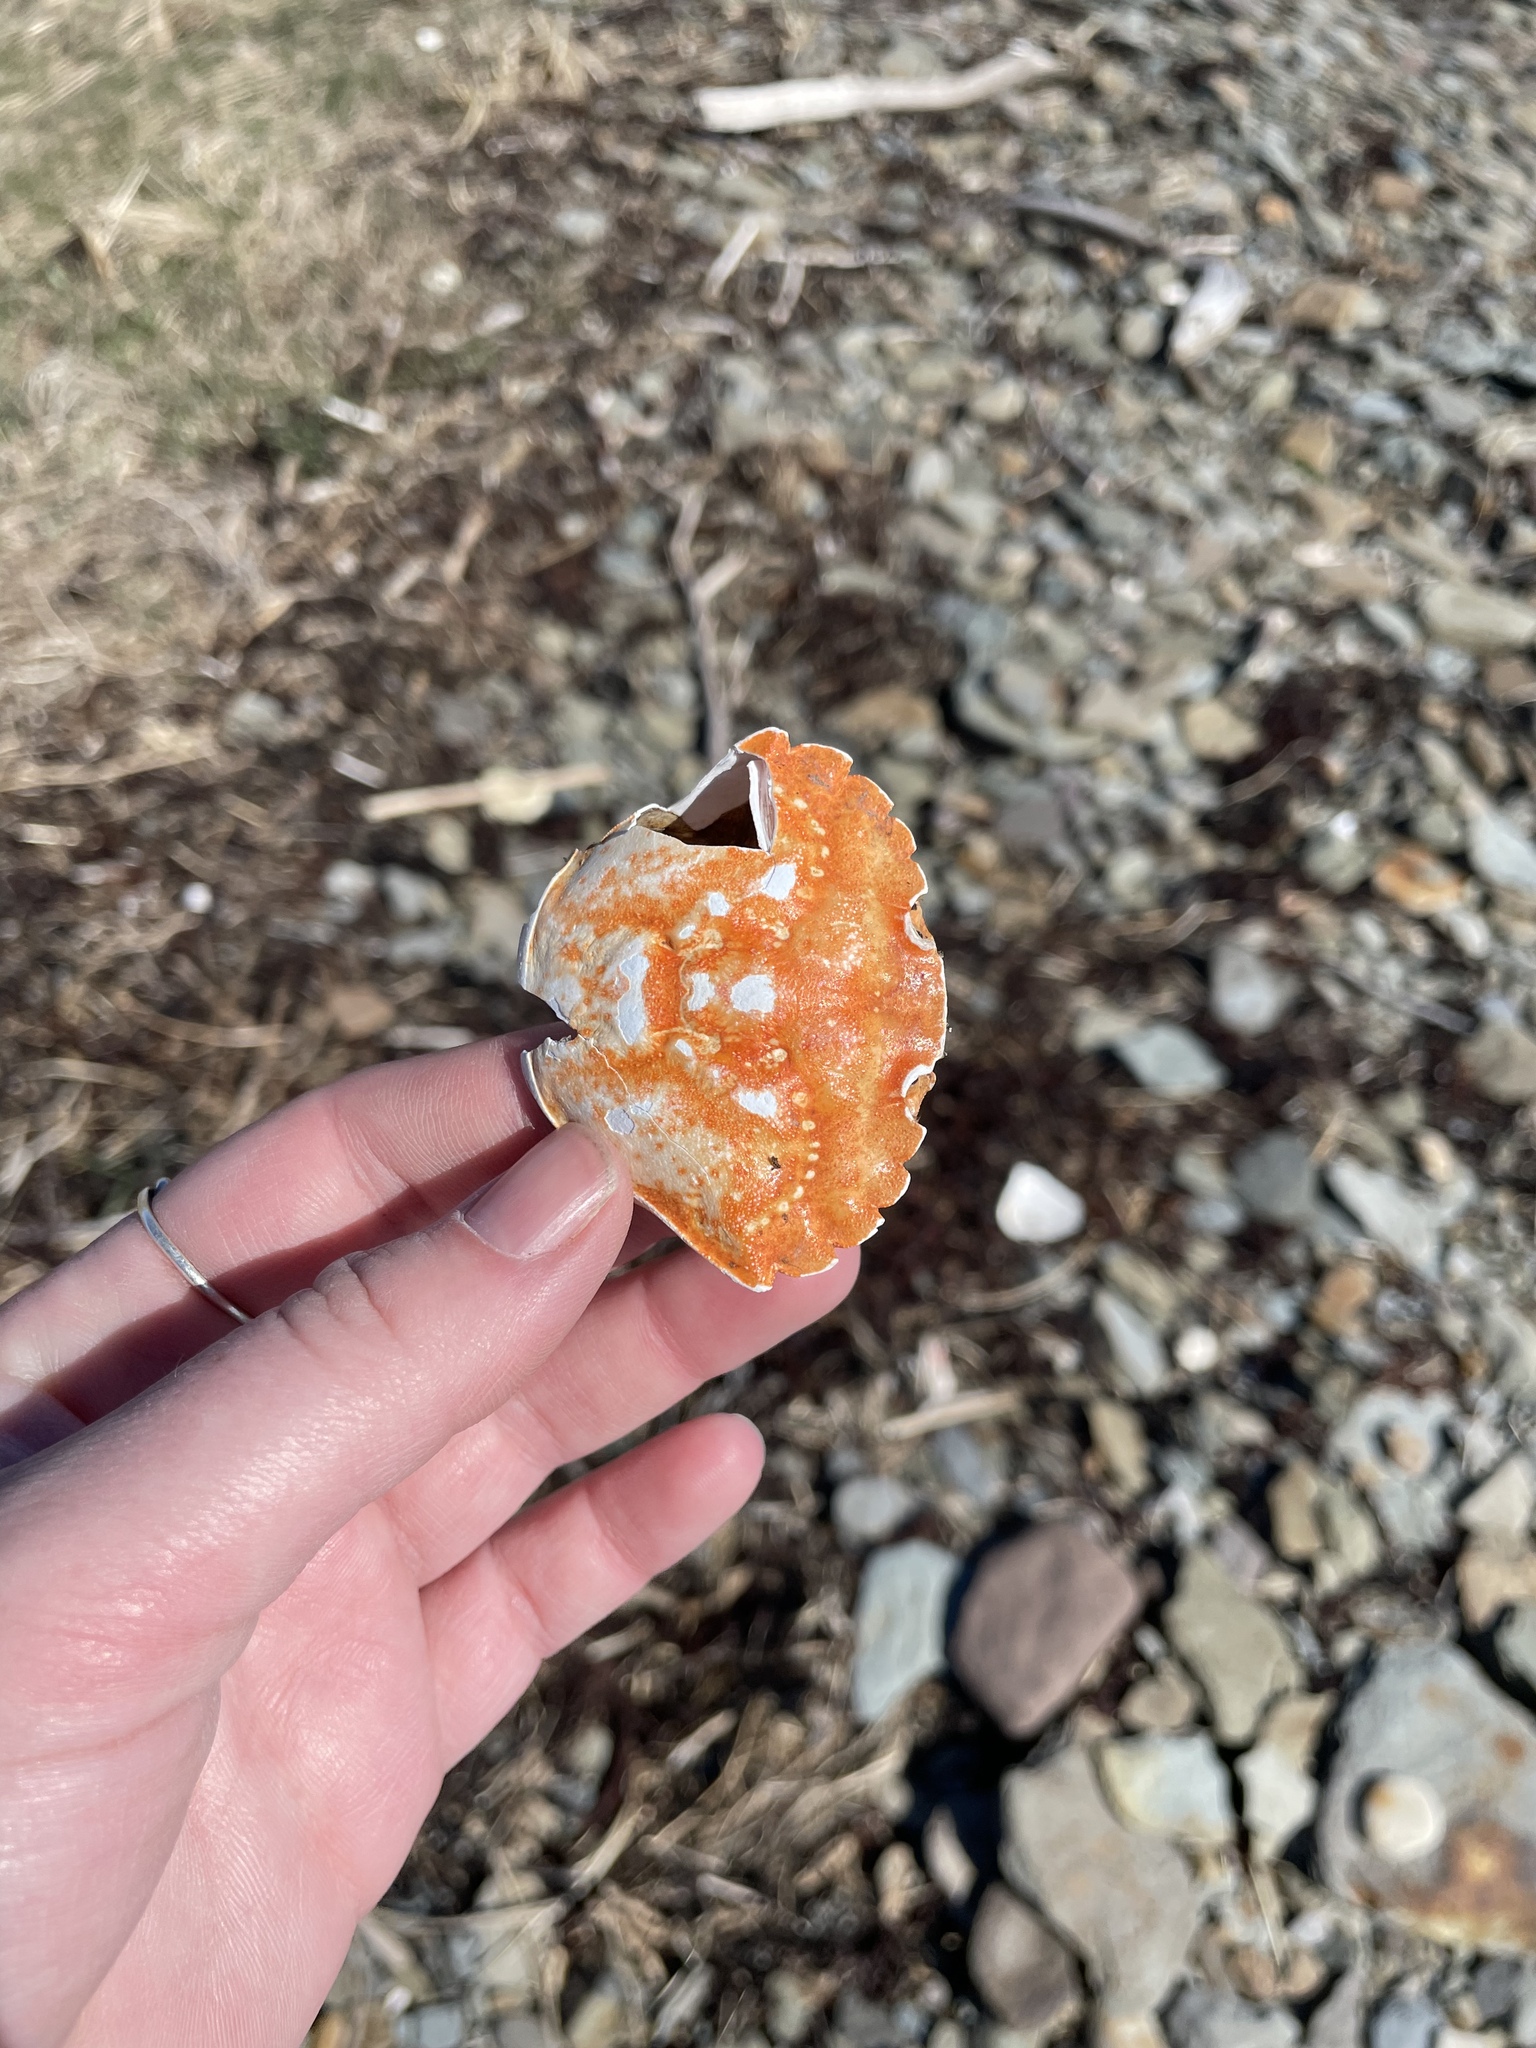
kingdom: Animalia
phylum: Arthropoda
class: Malacostraca
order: Decapoda
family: Carcinidae
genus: Carcinus
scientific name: Carcinus maenas
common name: European green crab
